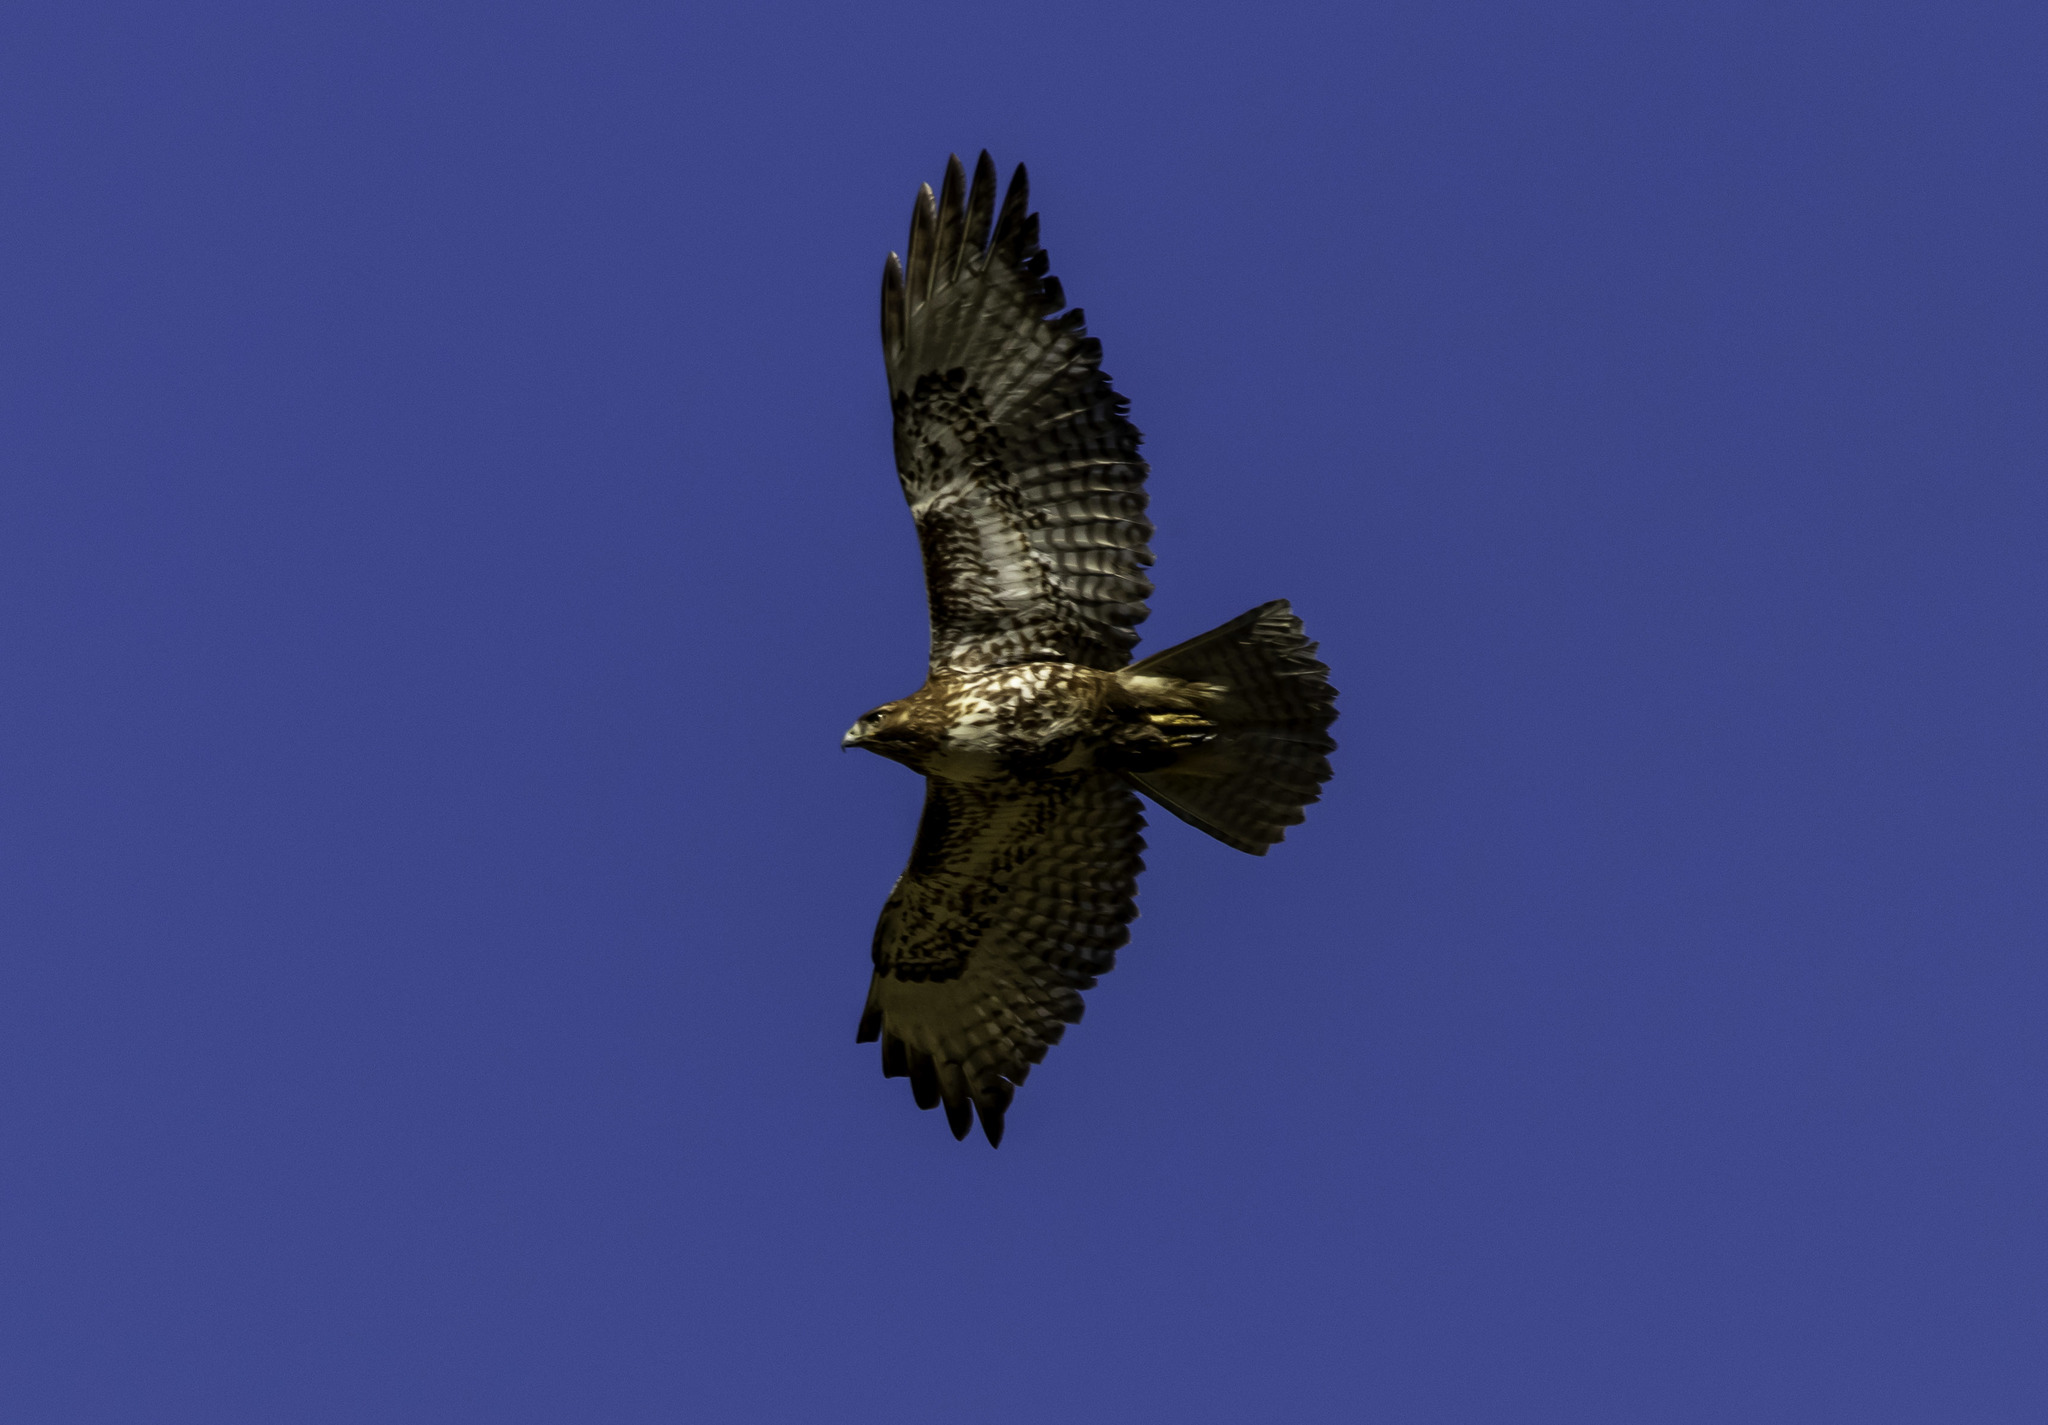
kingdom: Animalia
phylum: Chordata
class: Aves
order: Accipitriformes
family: Accipitridae
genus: Buteo
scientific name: Buteo jamaicensis
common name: Red-tailed hawk
